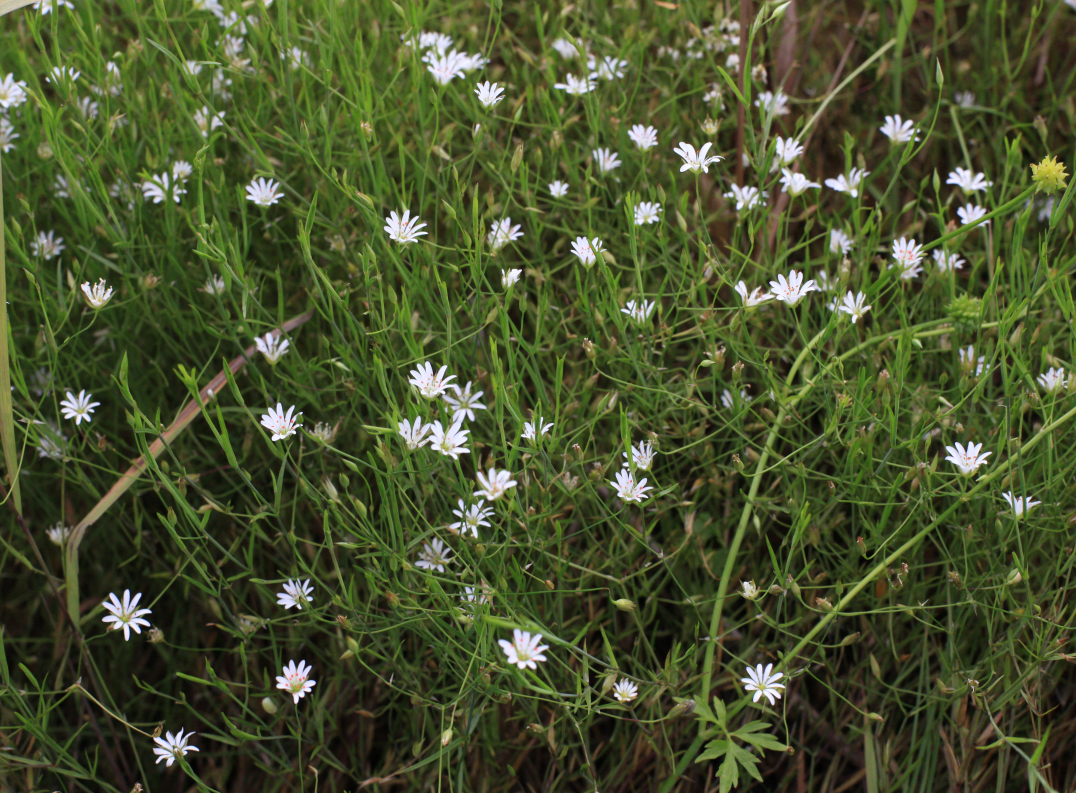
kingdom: Plantae
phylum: Tracheophyta
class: Magnoliopsida
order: Caryophyllales
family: Caryophyllaceae
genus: Stellaria
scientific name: Stellaria palustris
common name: Marsh stitchwort
